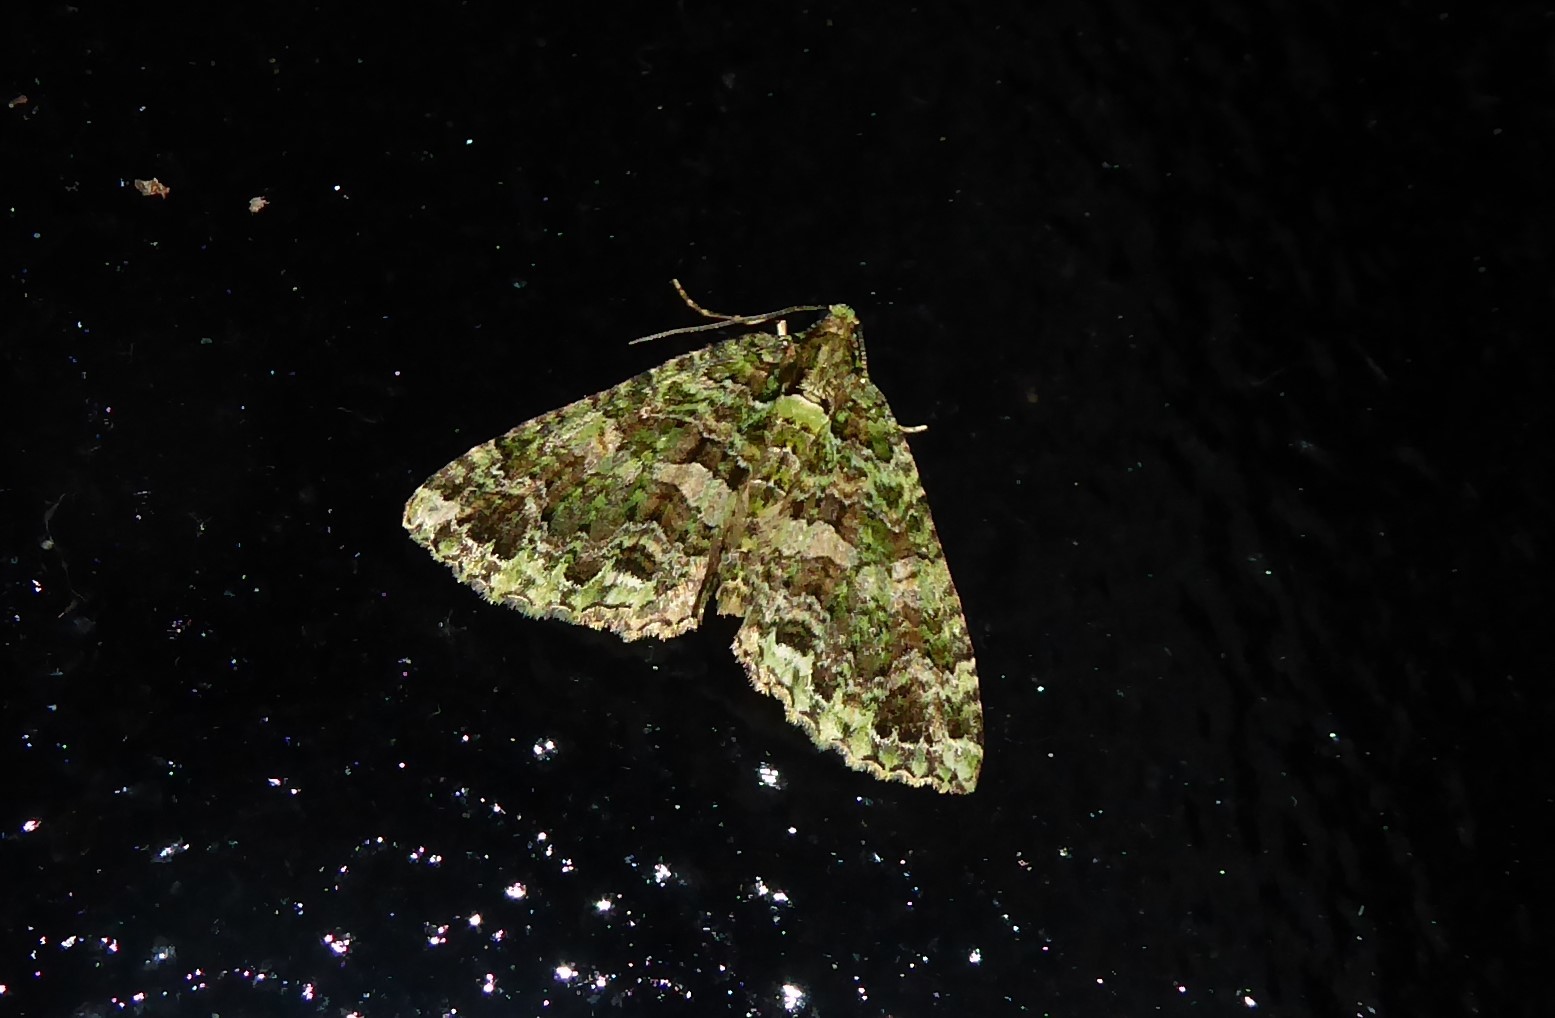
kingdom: Animalia
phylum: Arthropoda
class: Insecta
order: Lepidoptera
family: Geometridae
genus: Austrocidaria
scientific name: Austrocidaria similata
